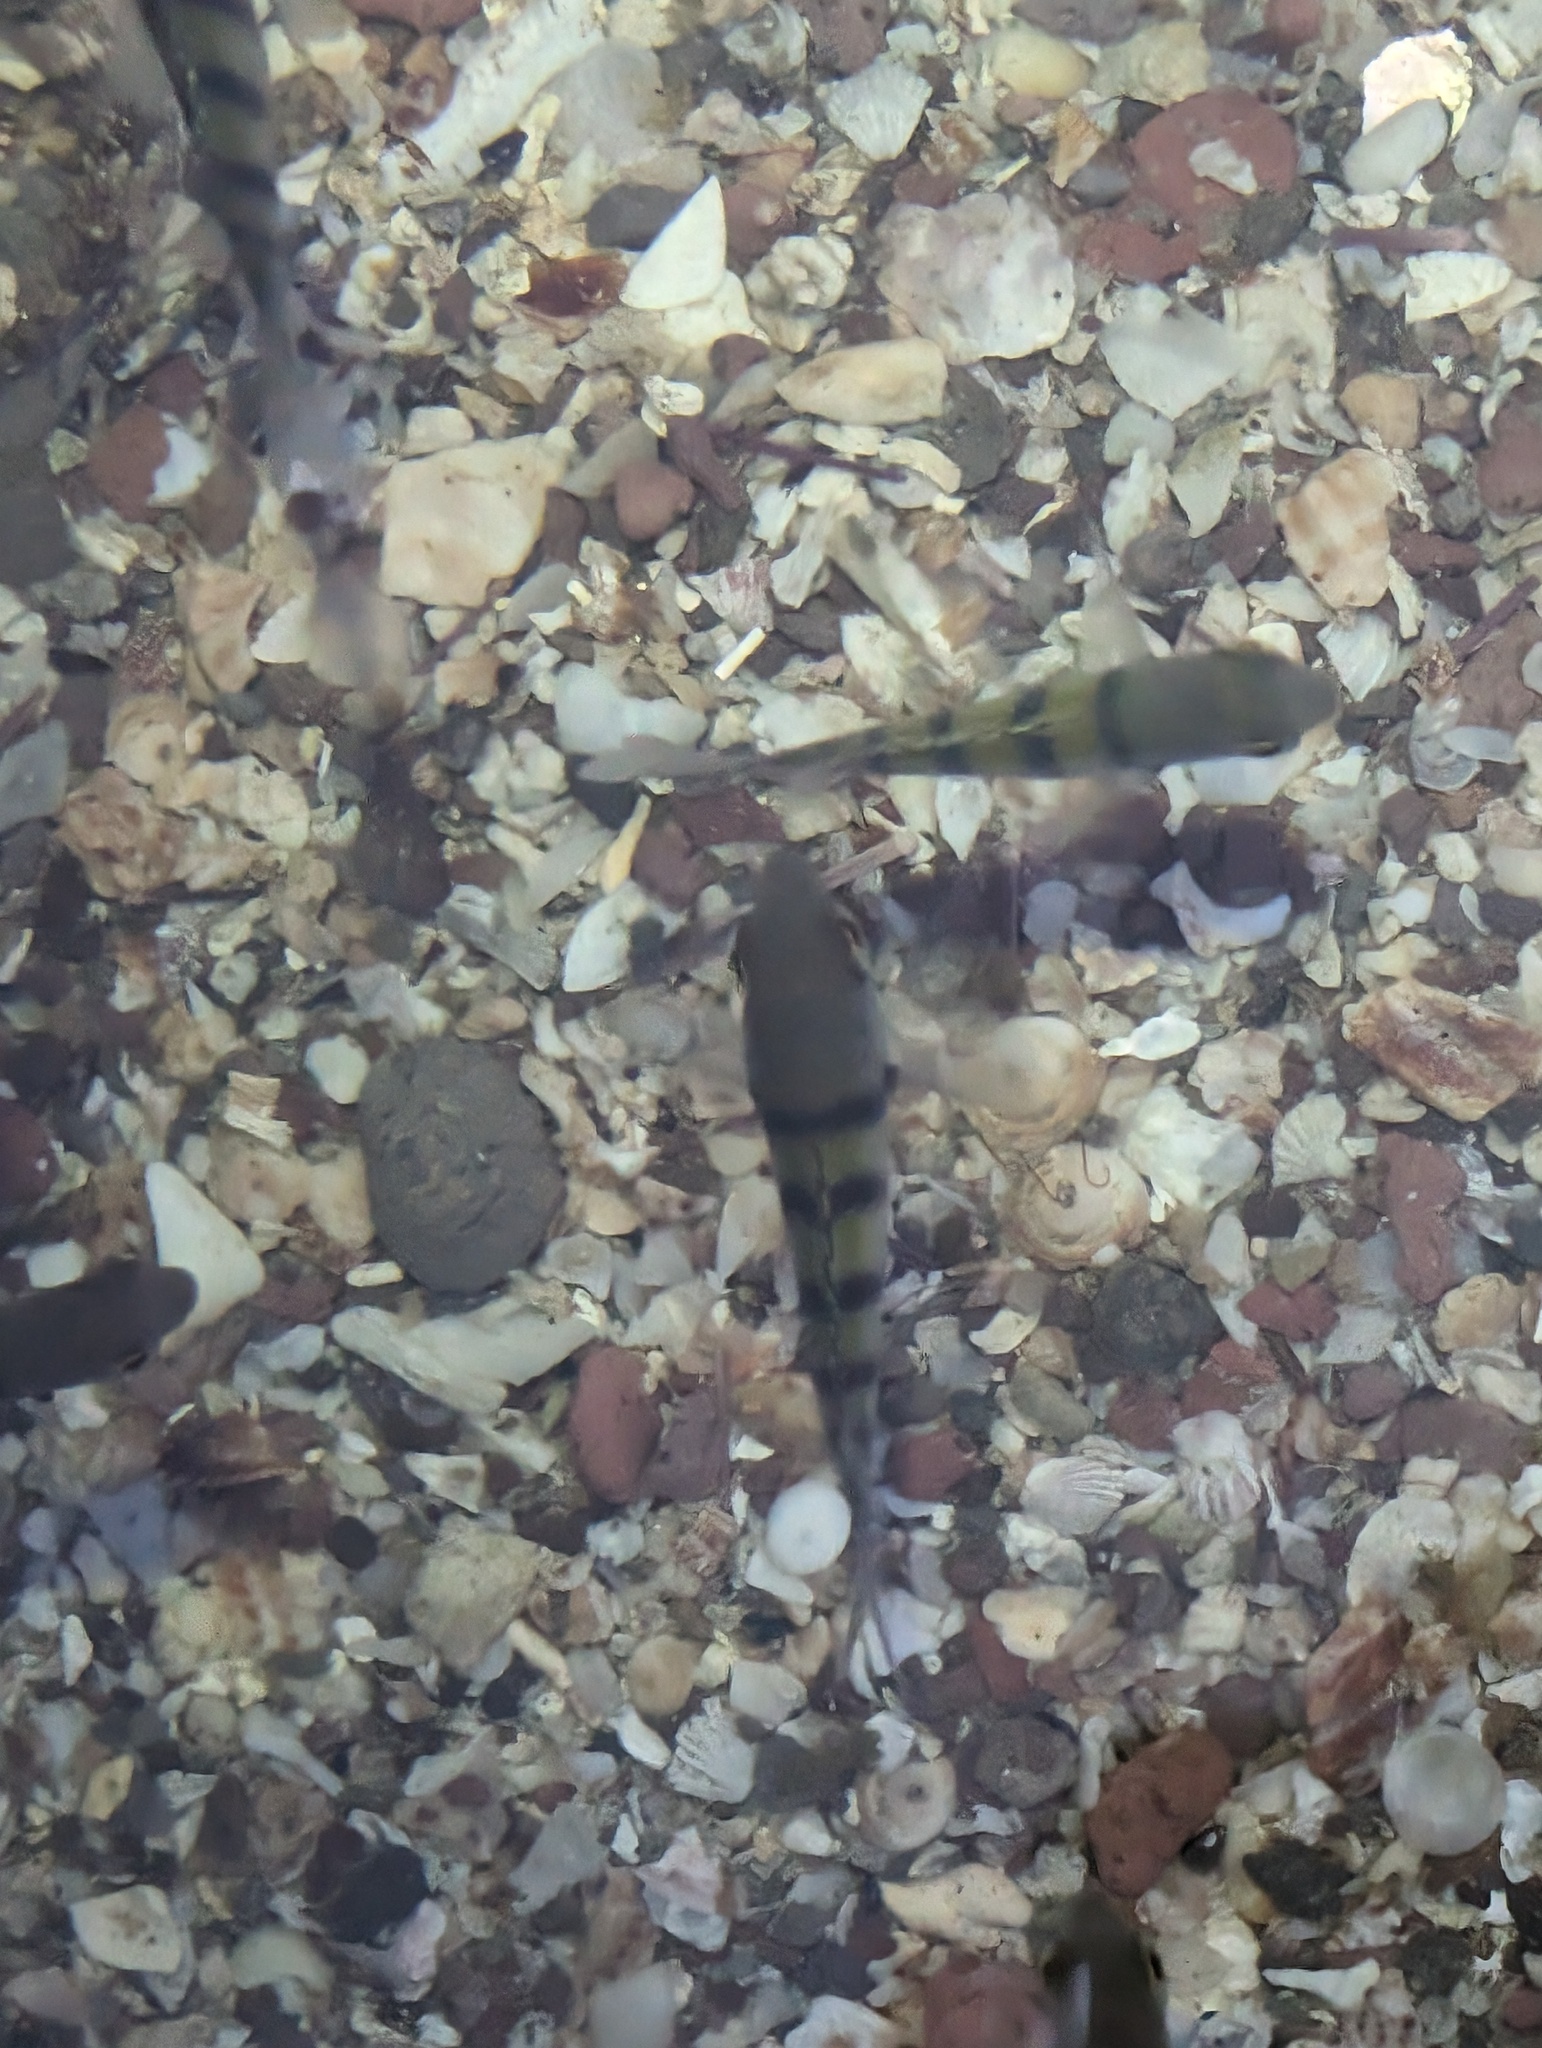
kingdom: Animalia
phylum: Chordata
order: Perciformes
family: Pomacentridae
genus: Abudefduf
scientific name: Abudefduf troschelii
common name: Panamic sergeant major
